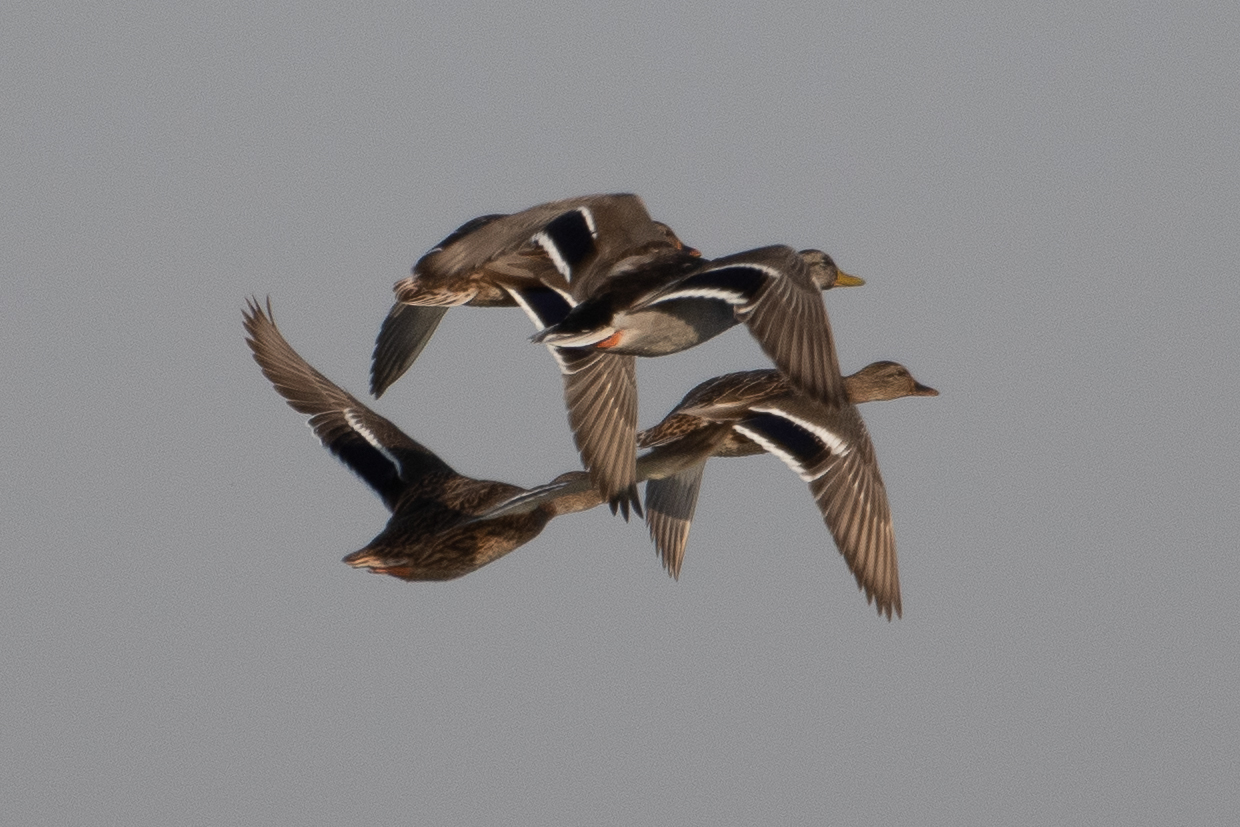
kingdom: Animalia
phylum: Chordata
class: Aves
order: Anseriformes
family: Anatidae
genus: Anas
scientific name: Anas platyrhynchos
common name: Mallard
